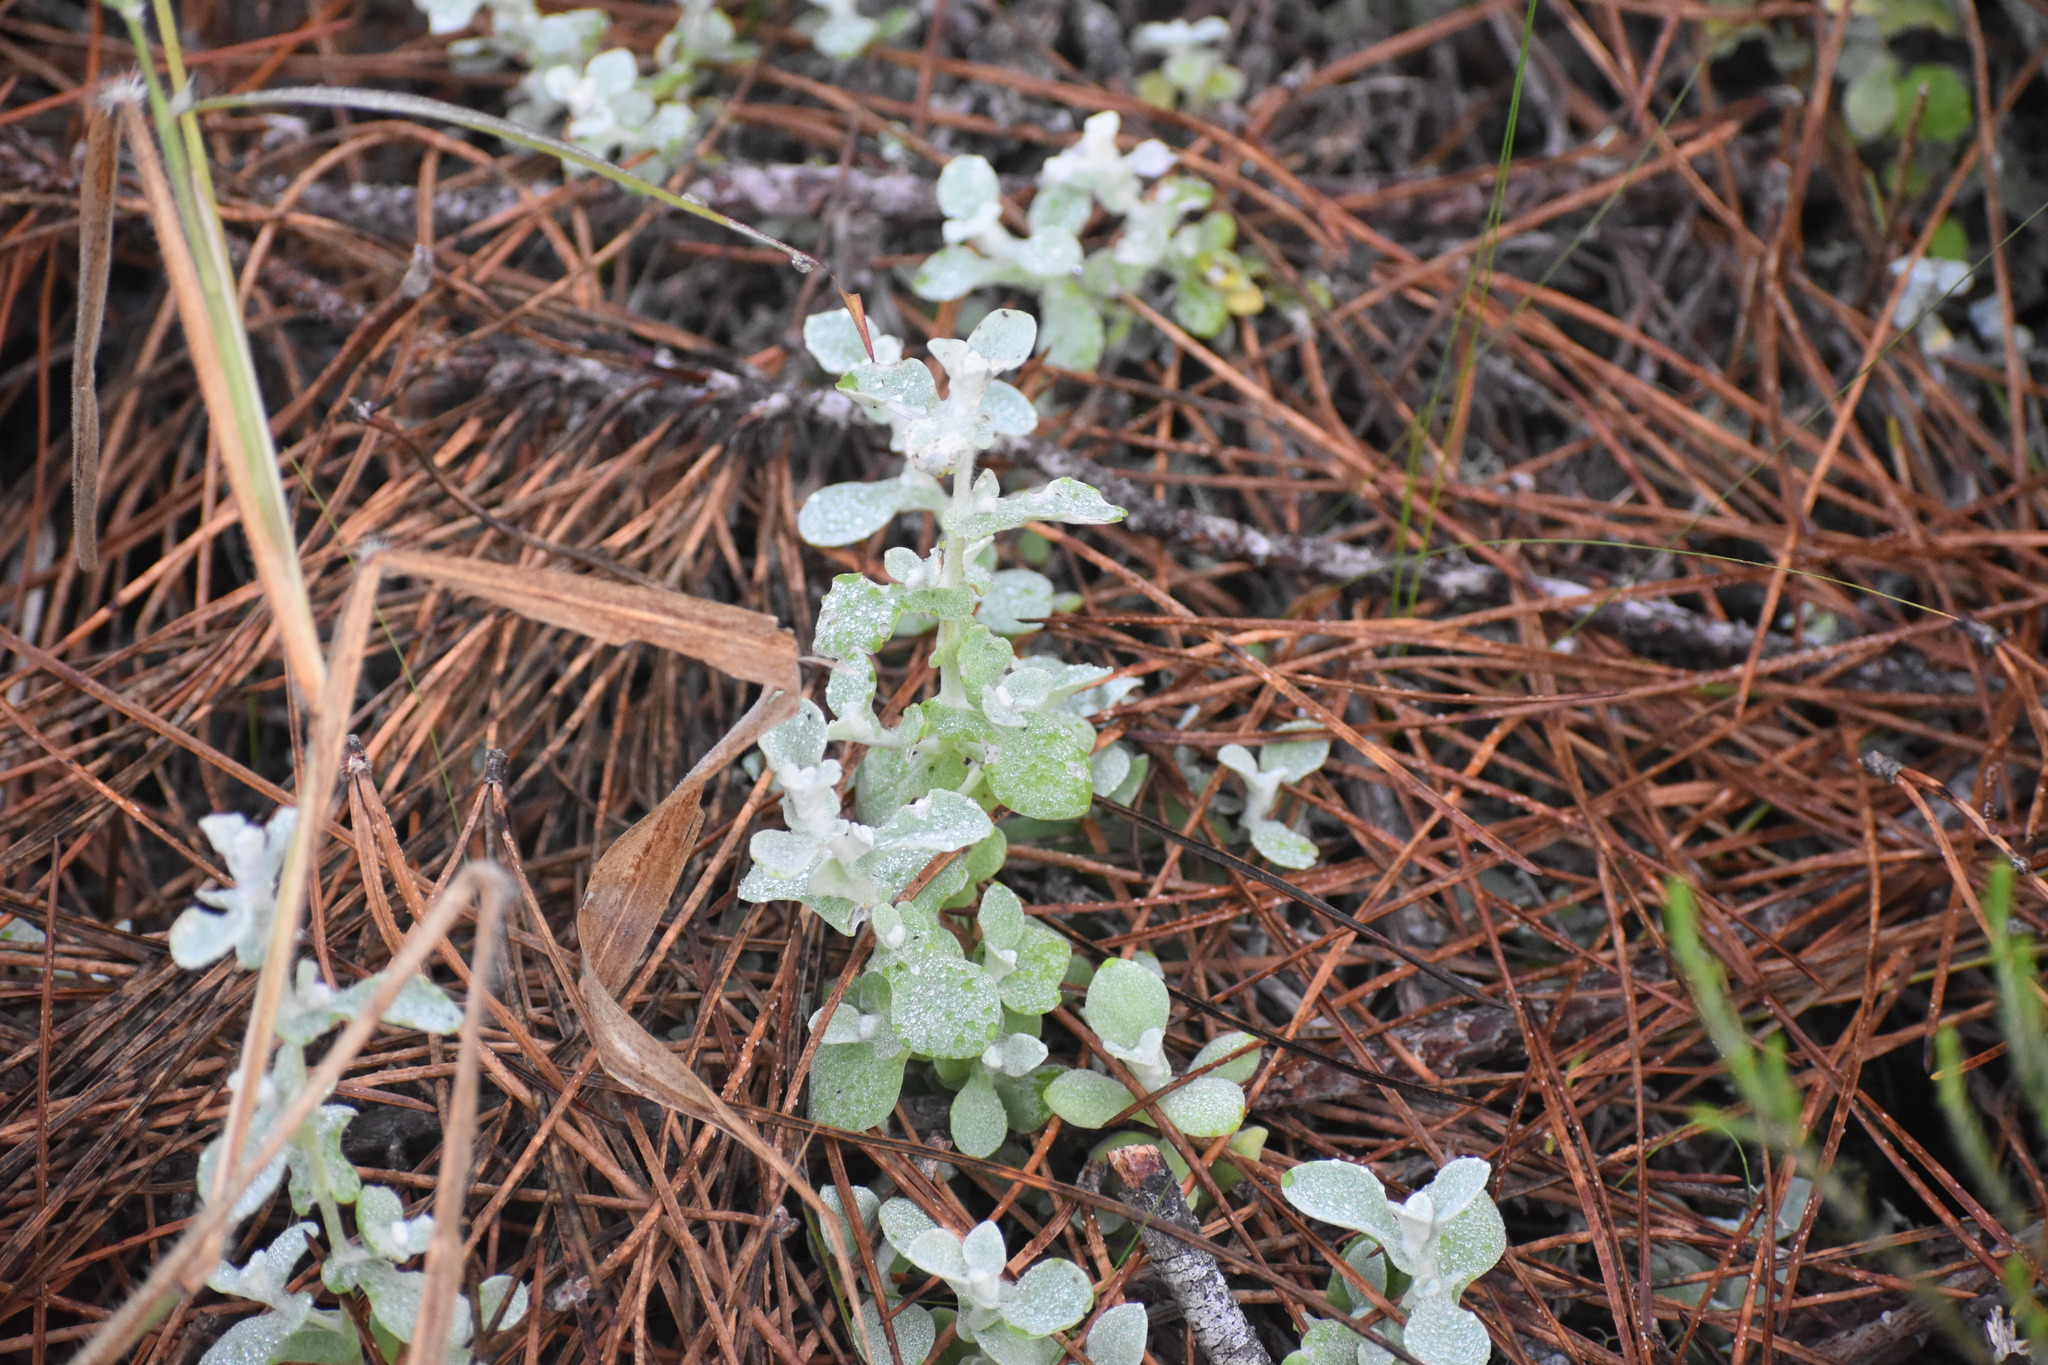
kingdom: Plantae
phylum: Tracheophyta
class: Magnoliopsida
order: Asterales
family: Asteraceae
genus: Helichrysum
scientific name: Helichrysum petiolare
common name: Licorice-plant
